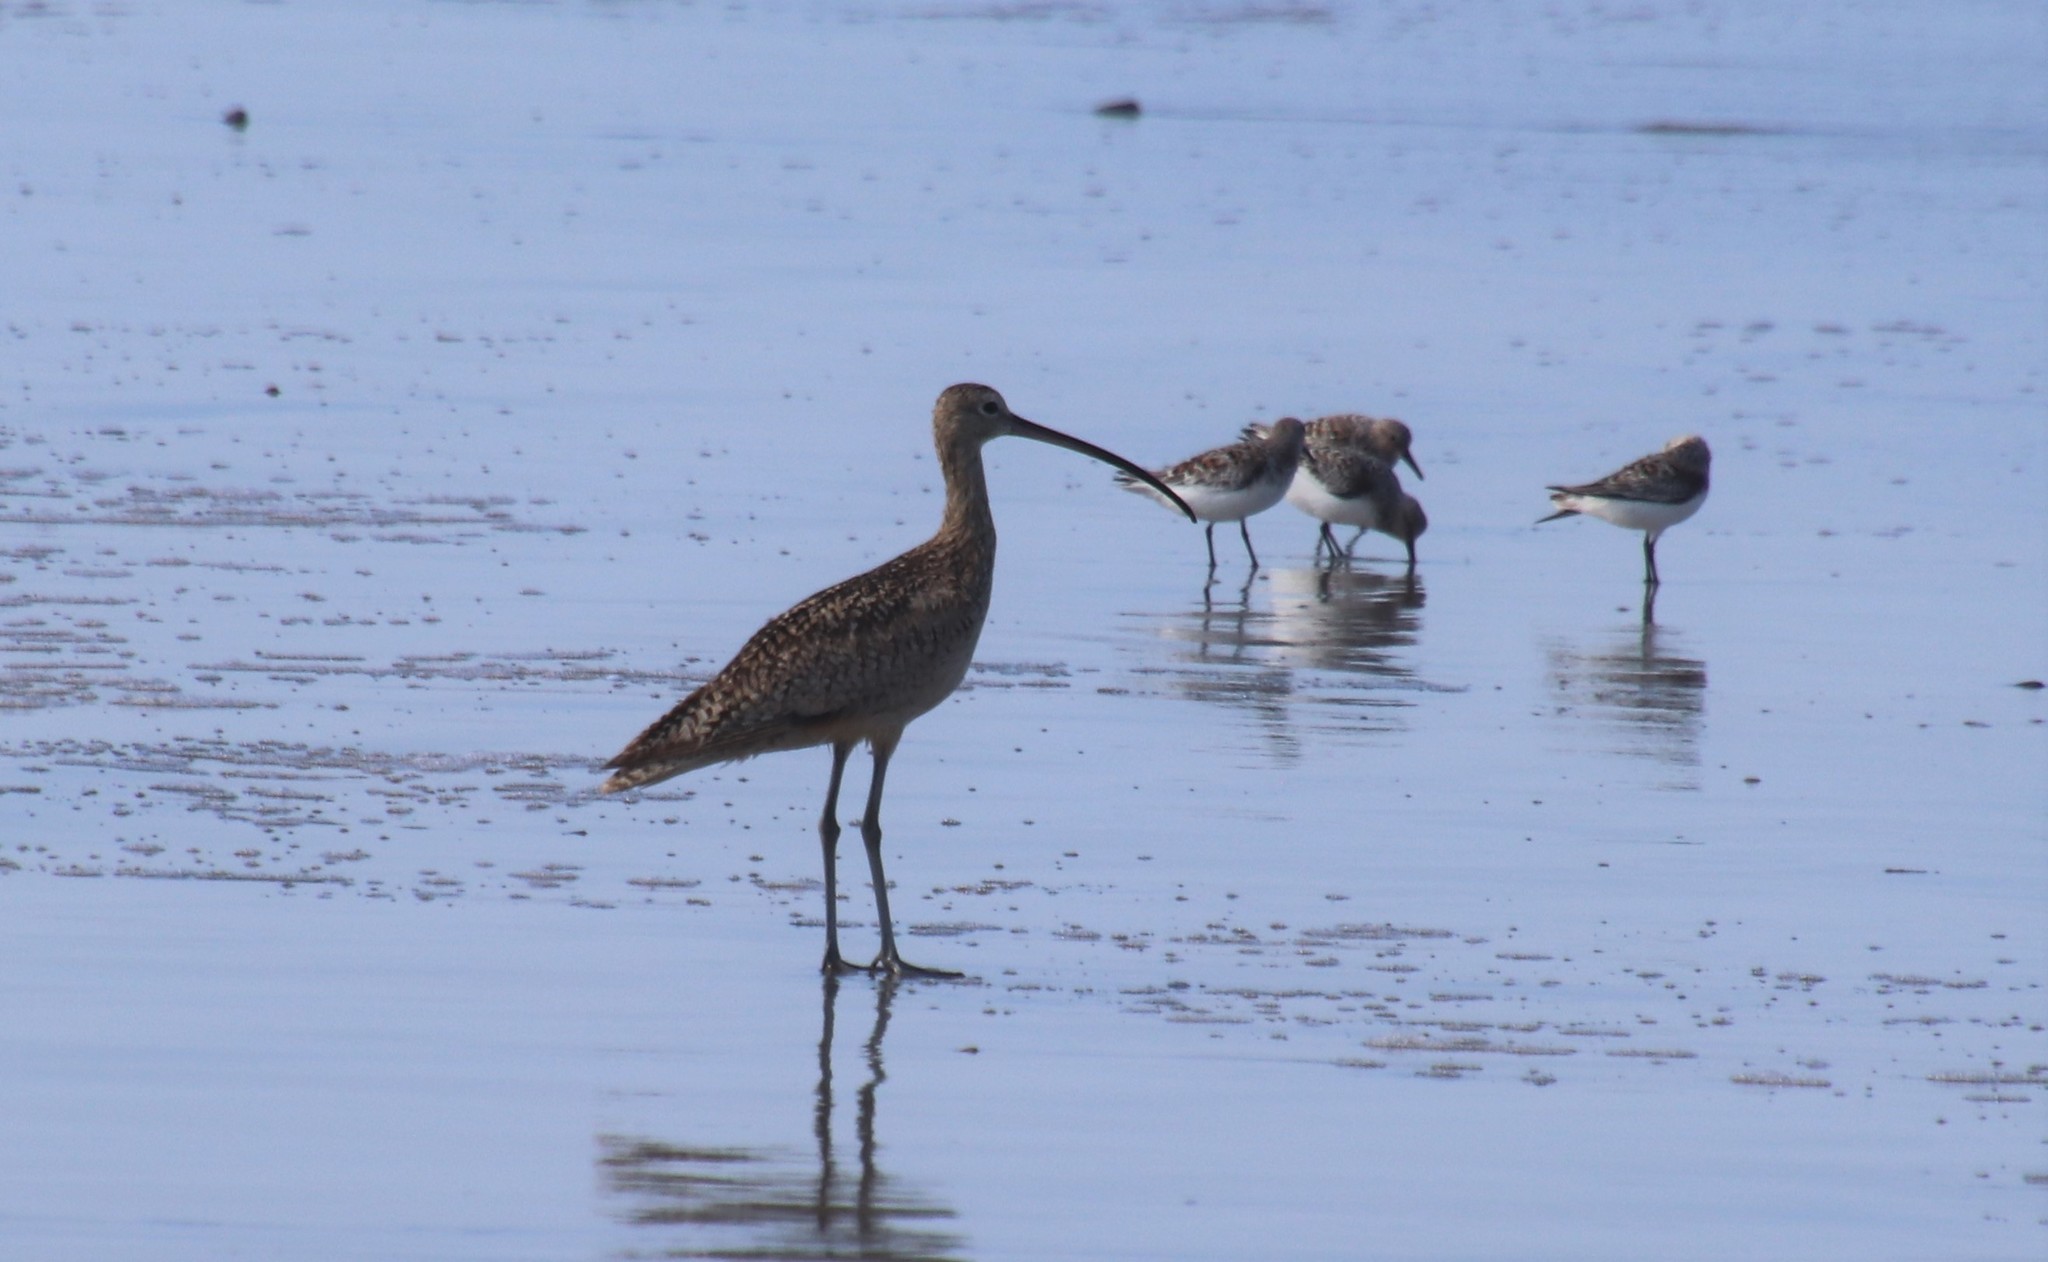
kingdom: Animalia
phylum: Chordata
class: Aves
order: Charadriiformes
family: Scolopacidae
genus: Numenius
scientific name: Numenius americanus
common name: Long-billed curlew
